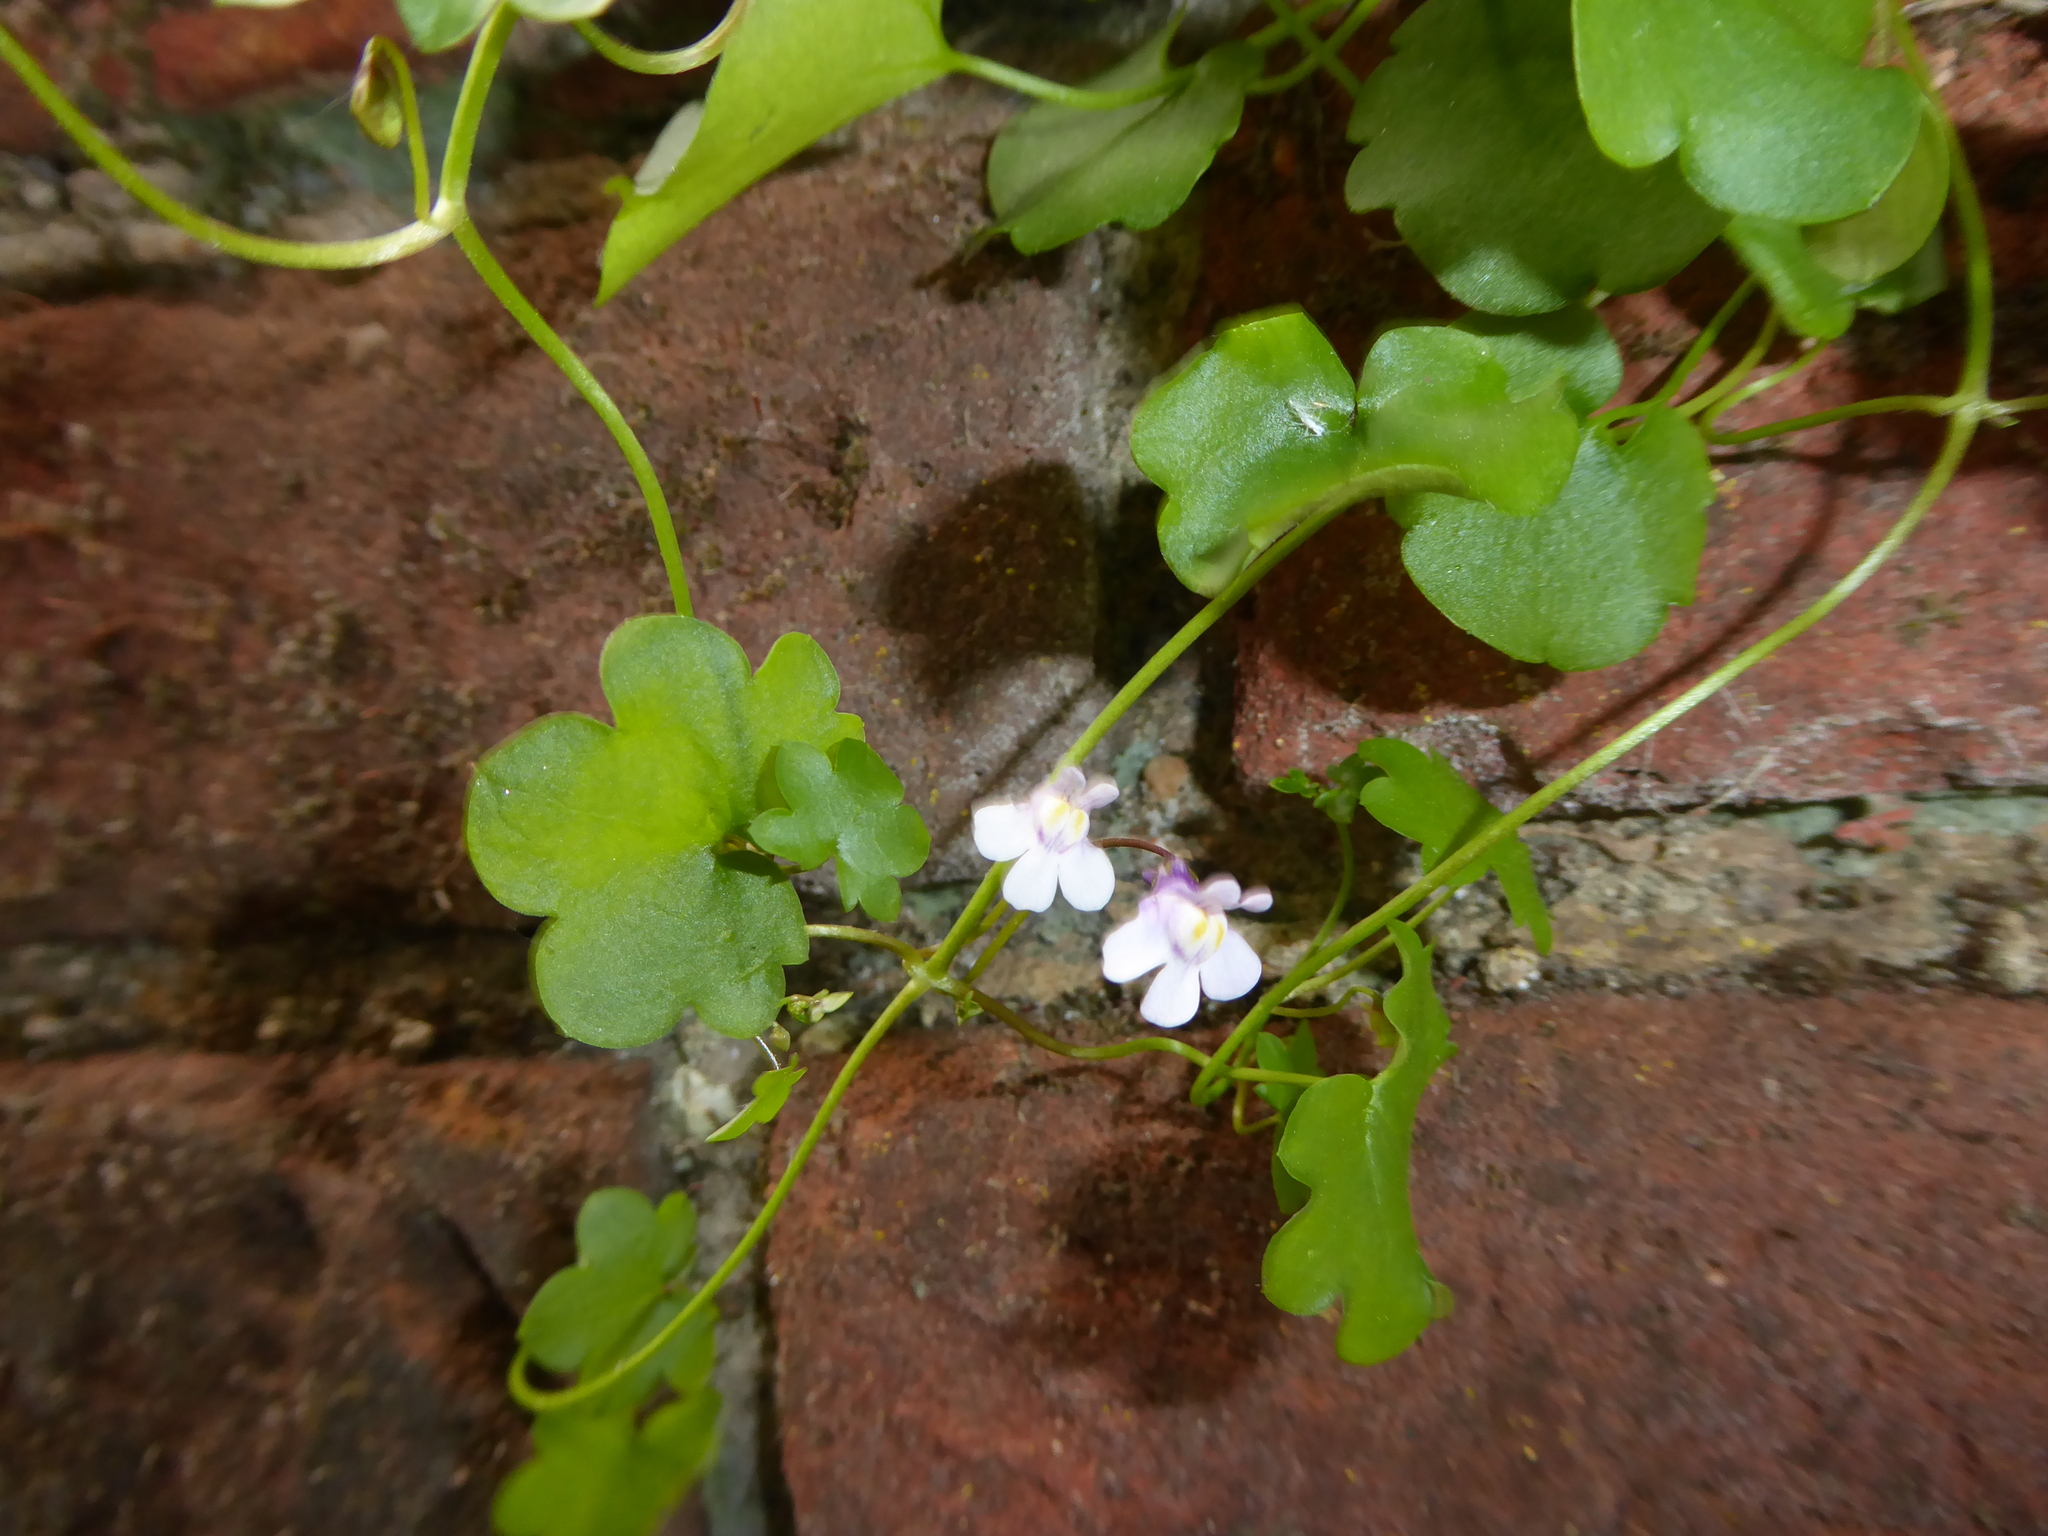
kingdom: Plantae
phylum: Tracheophyta
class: Magnoliopsida
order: Lamiales
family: Plantaginaceae
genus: Cymbalaria
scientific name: Cymbalaria muralis
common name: Ivy-leaved toadflax
